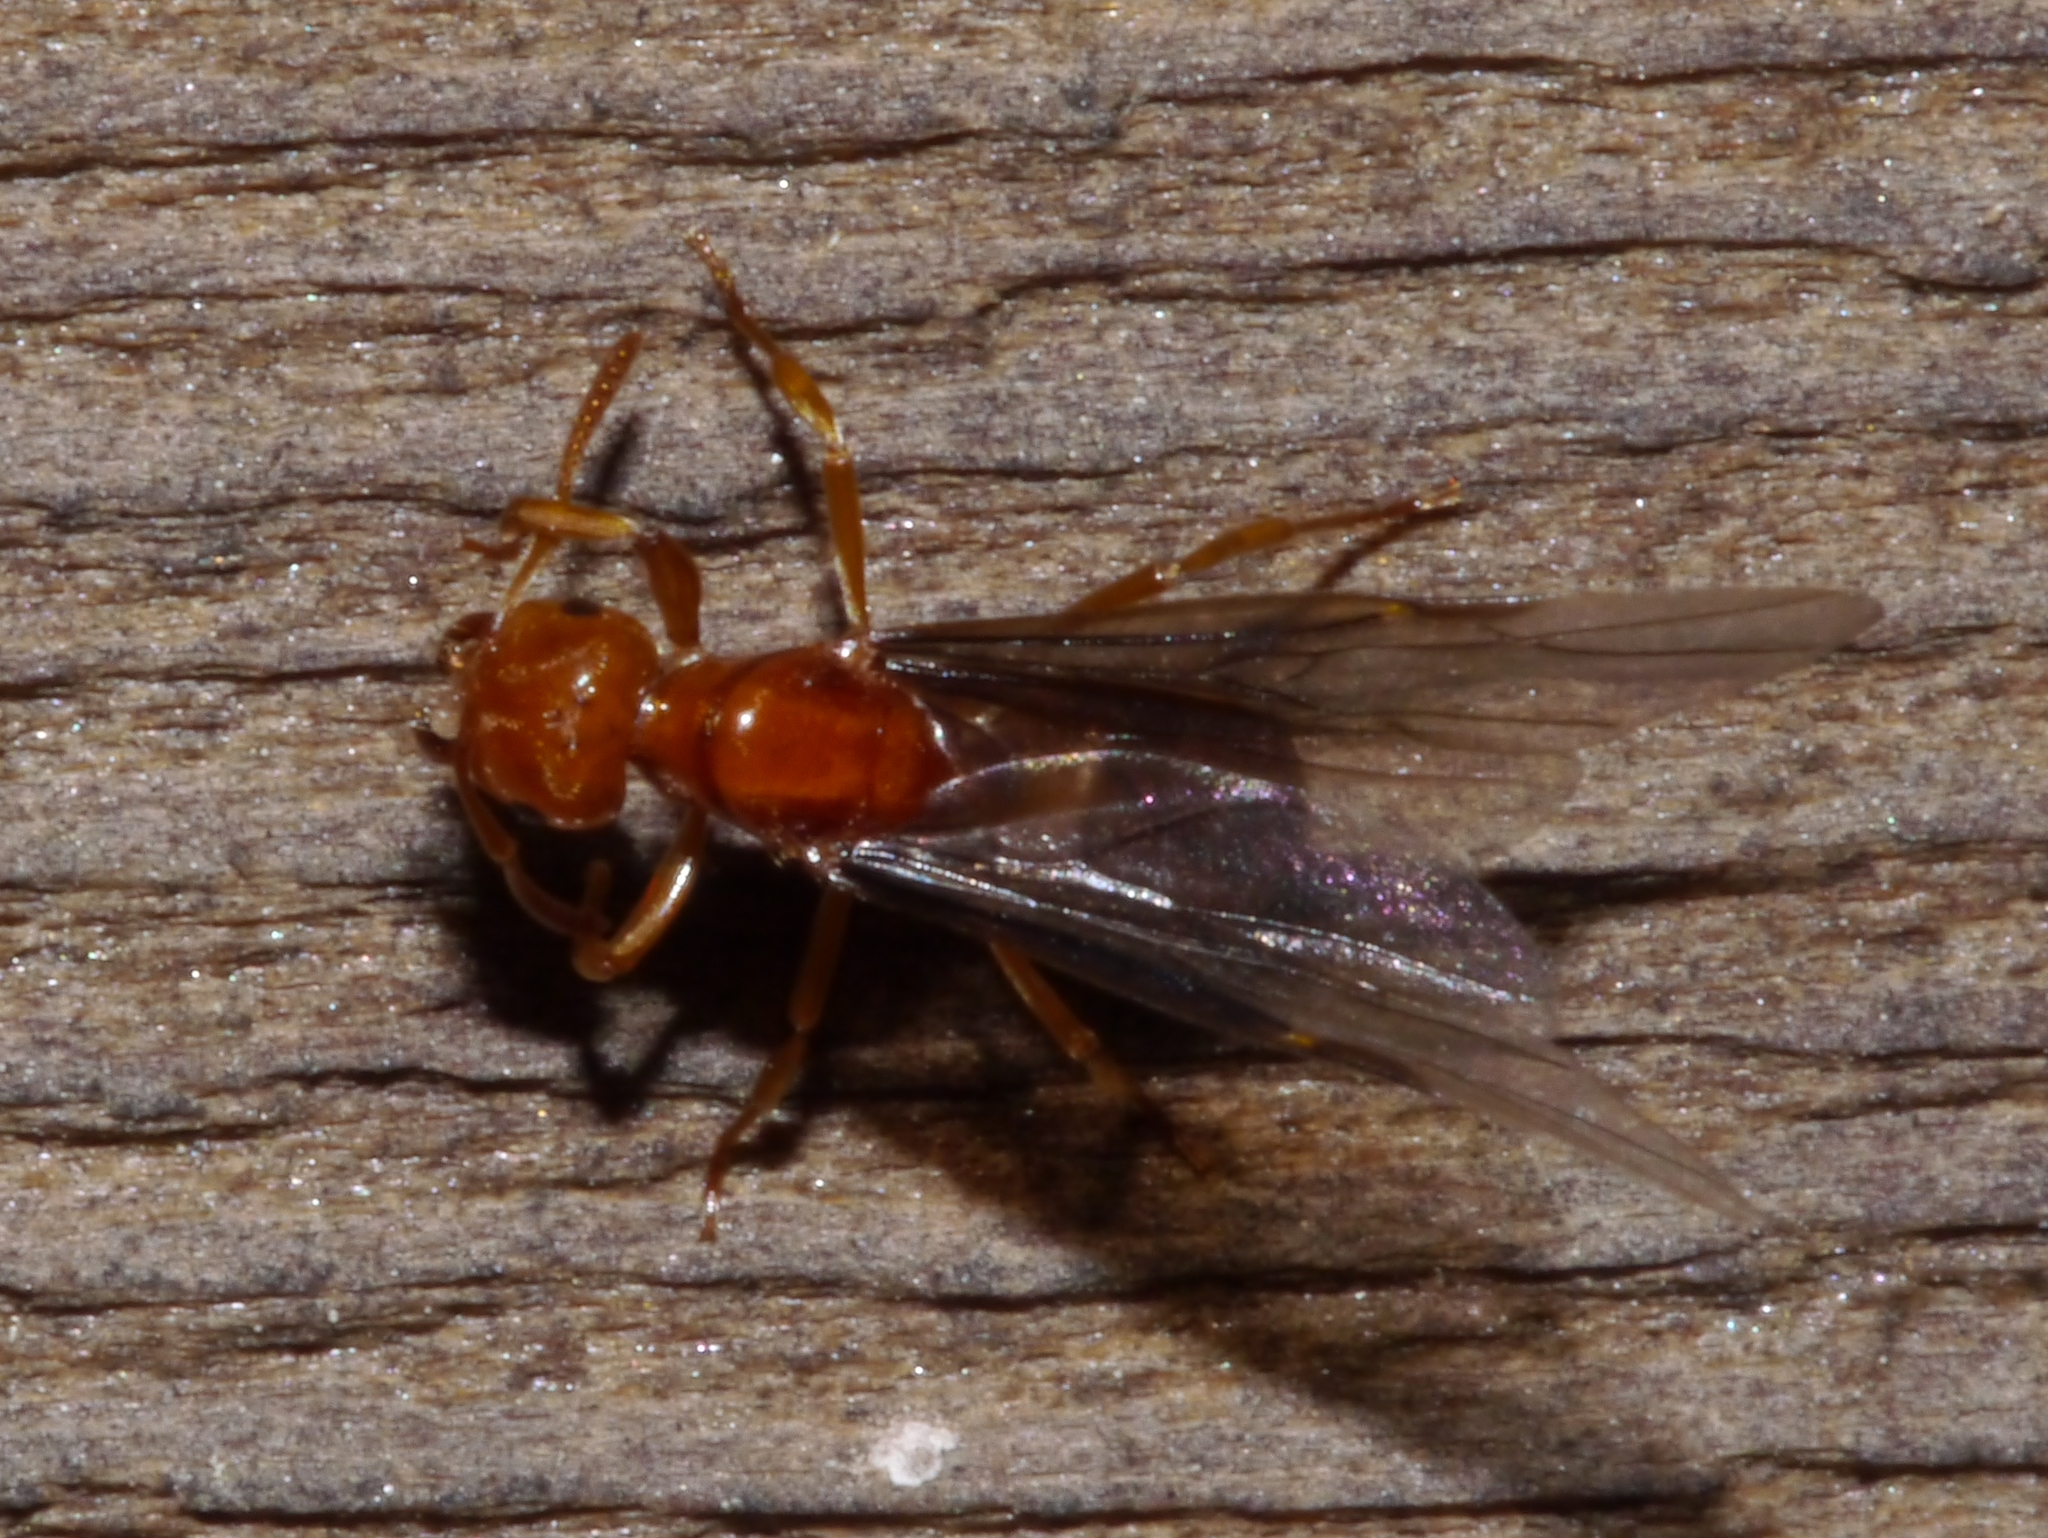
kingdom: Animalia
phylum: Arthropoda
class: Insecta
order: Hymenoptera
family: Formicidae
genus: Acanthomyops
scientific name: Acanthomyops interjectus
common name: Larger yellow ant
